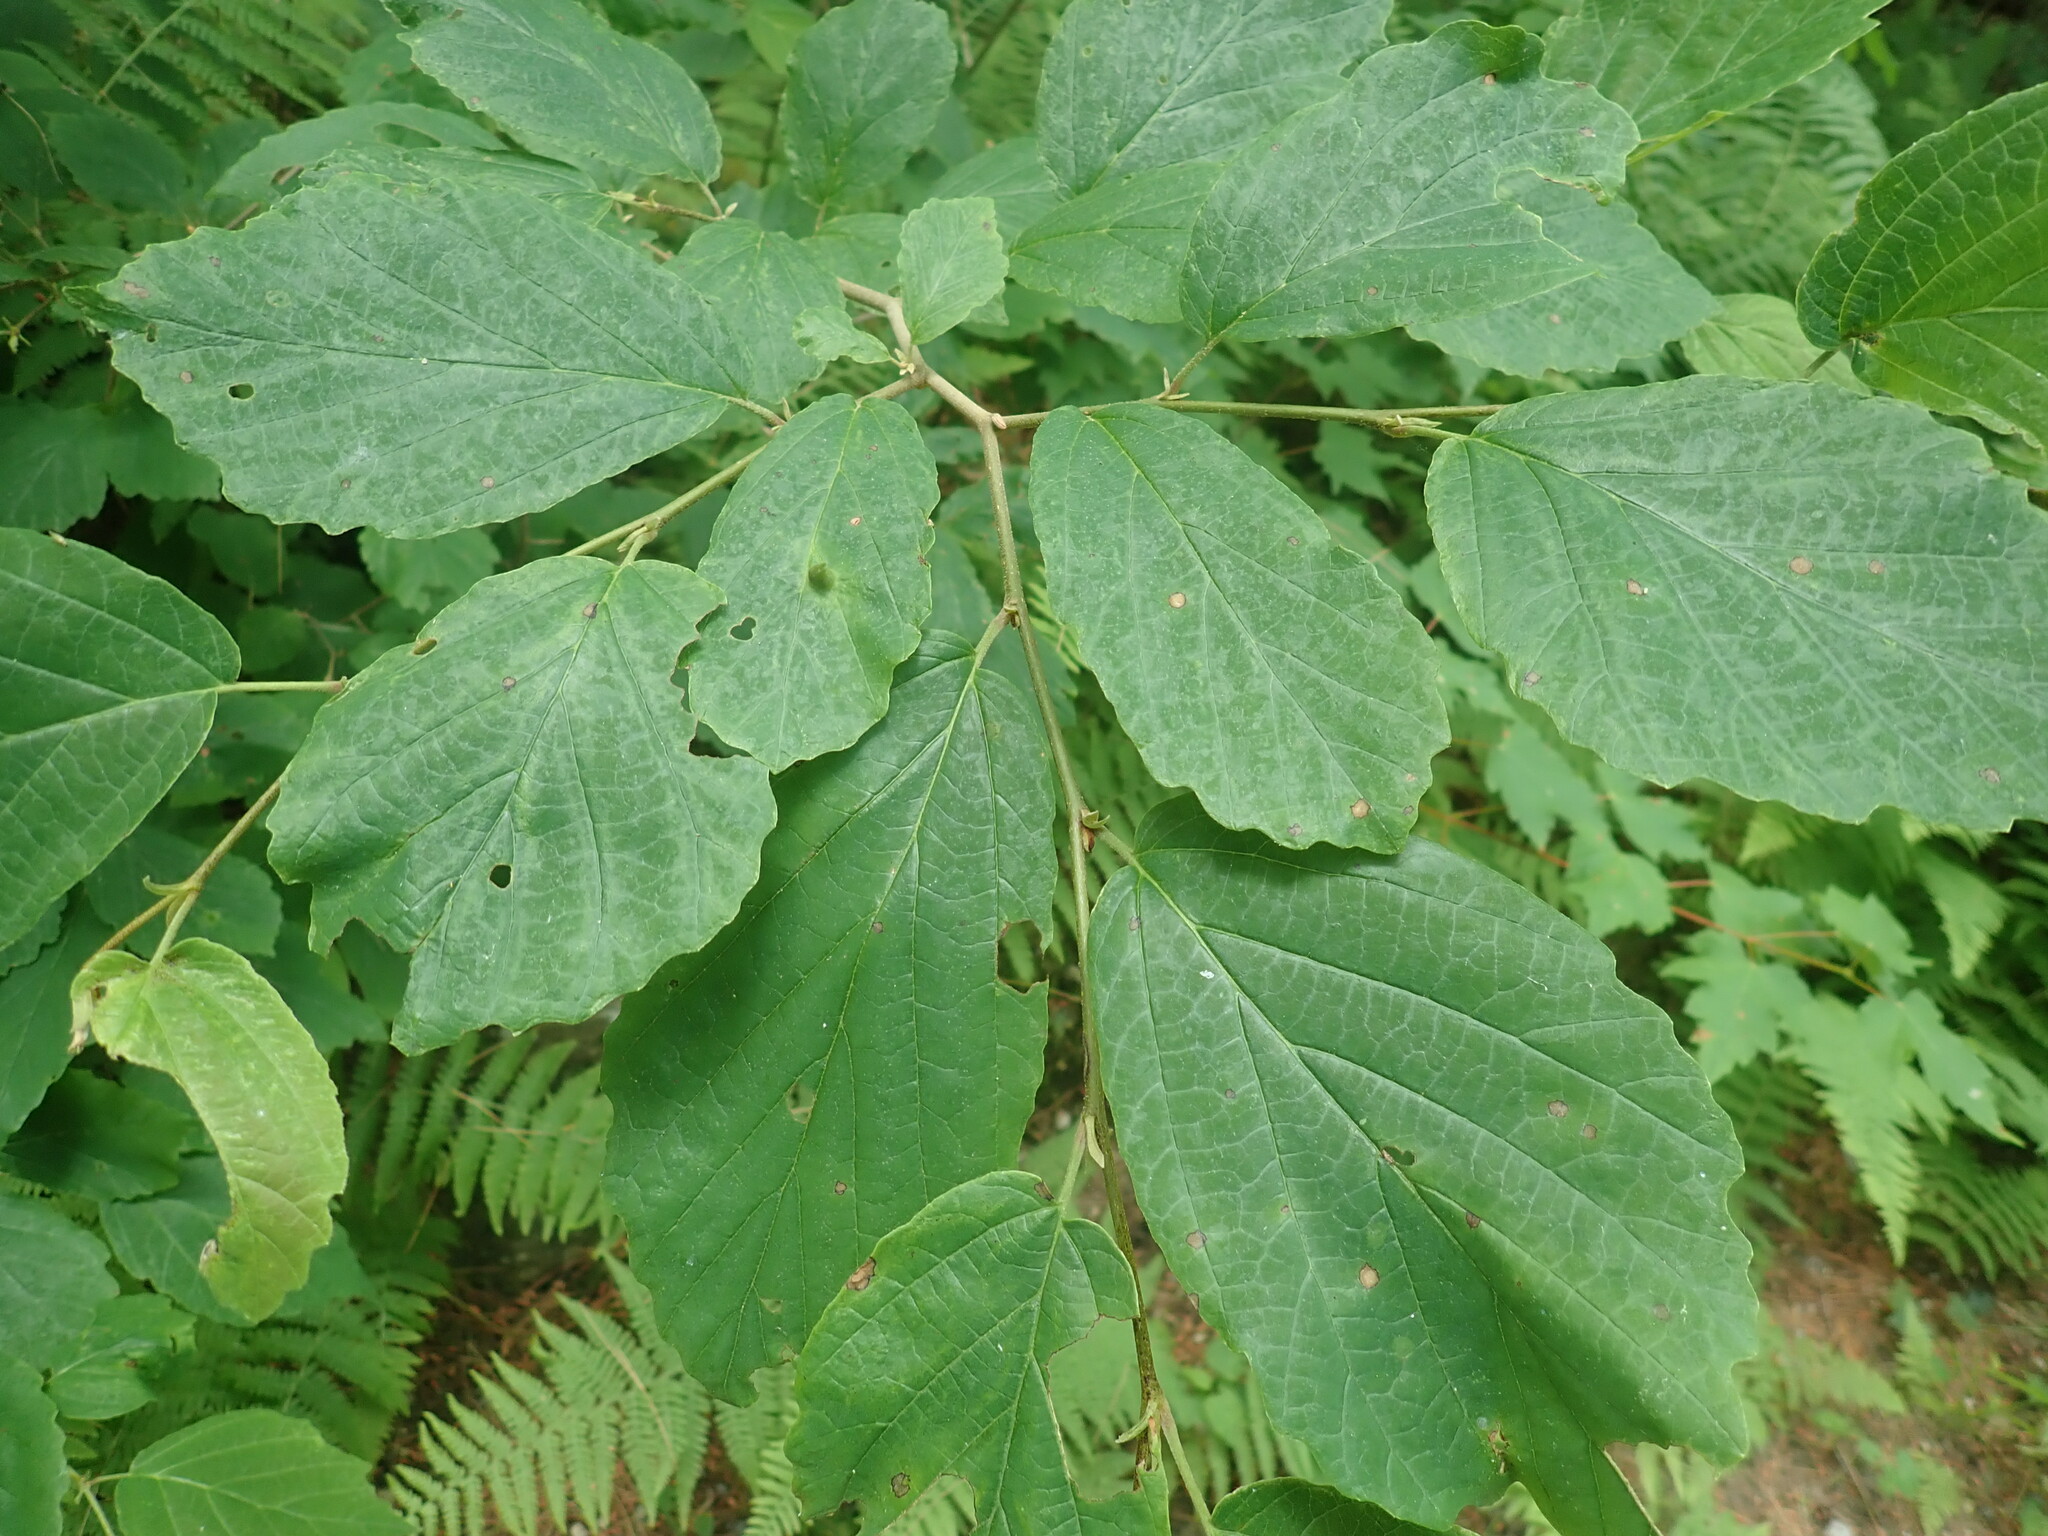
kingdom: Plantae
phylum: Tracheophyta
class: Magnoliopsida
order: Saxifragales
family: Hamamelidaceae
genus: Hamamelis
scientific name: Hamamelis virginiana
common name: Witch-hazel
